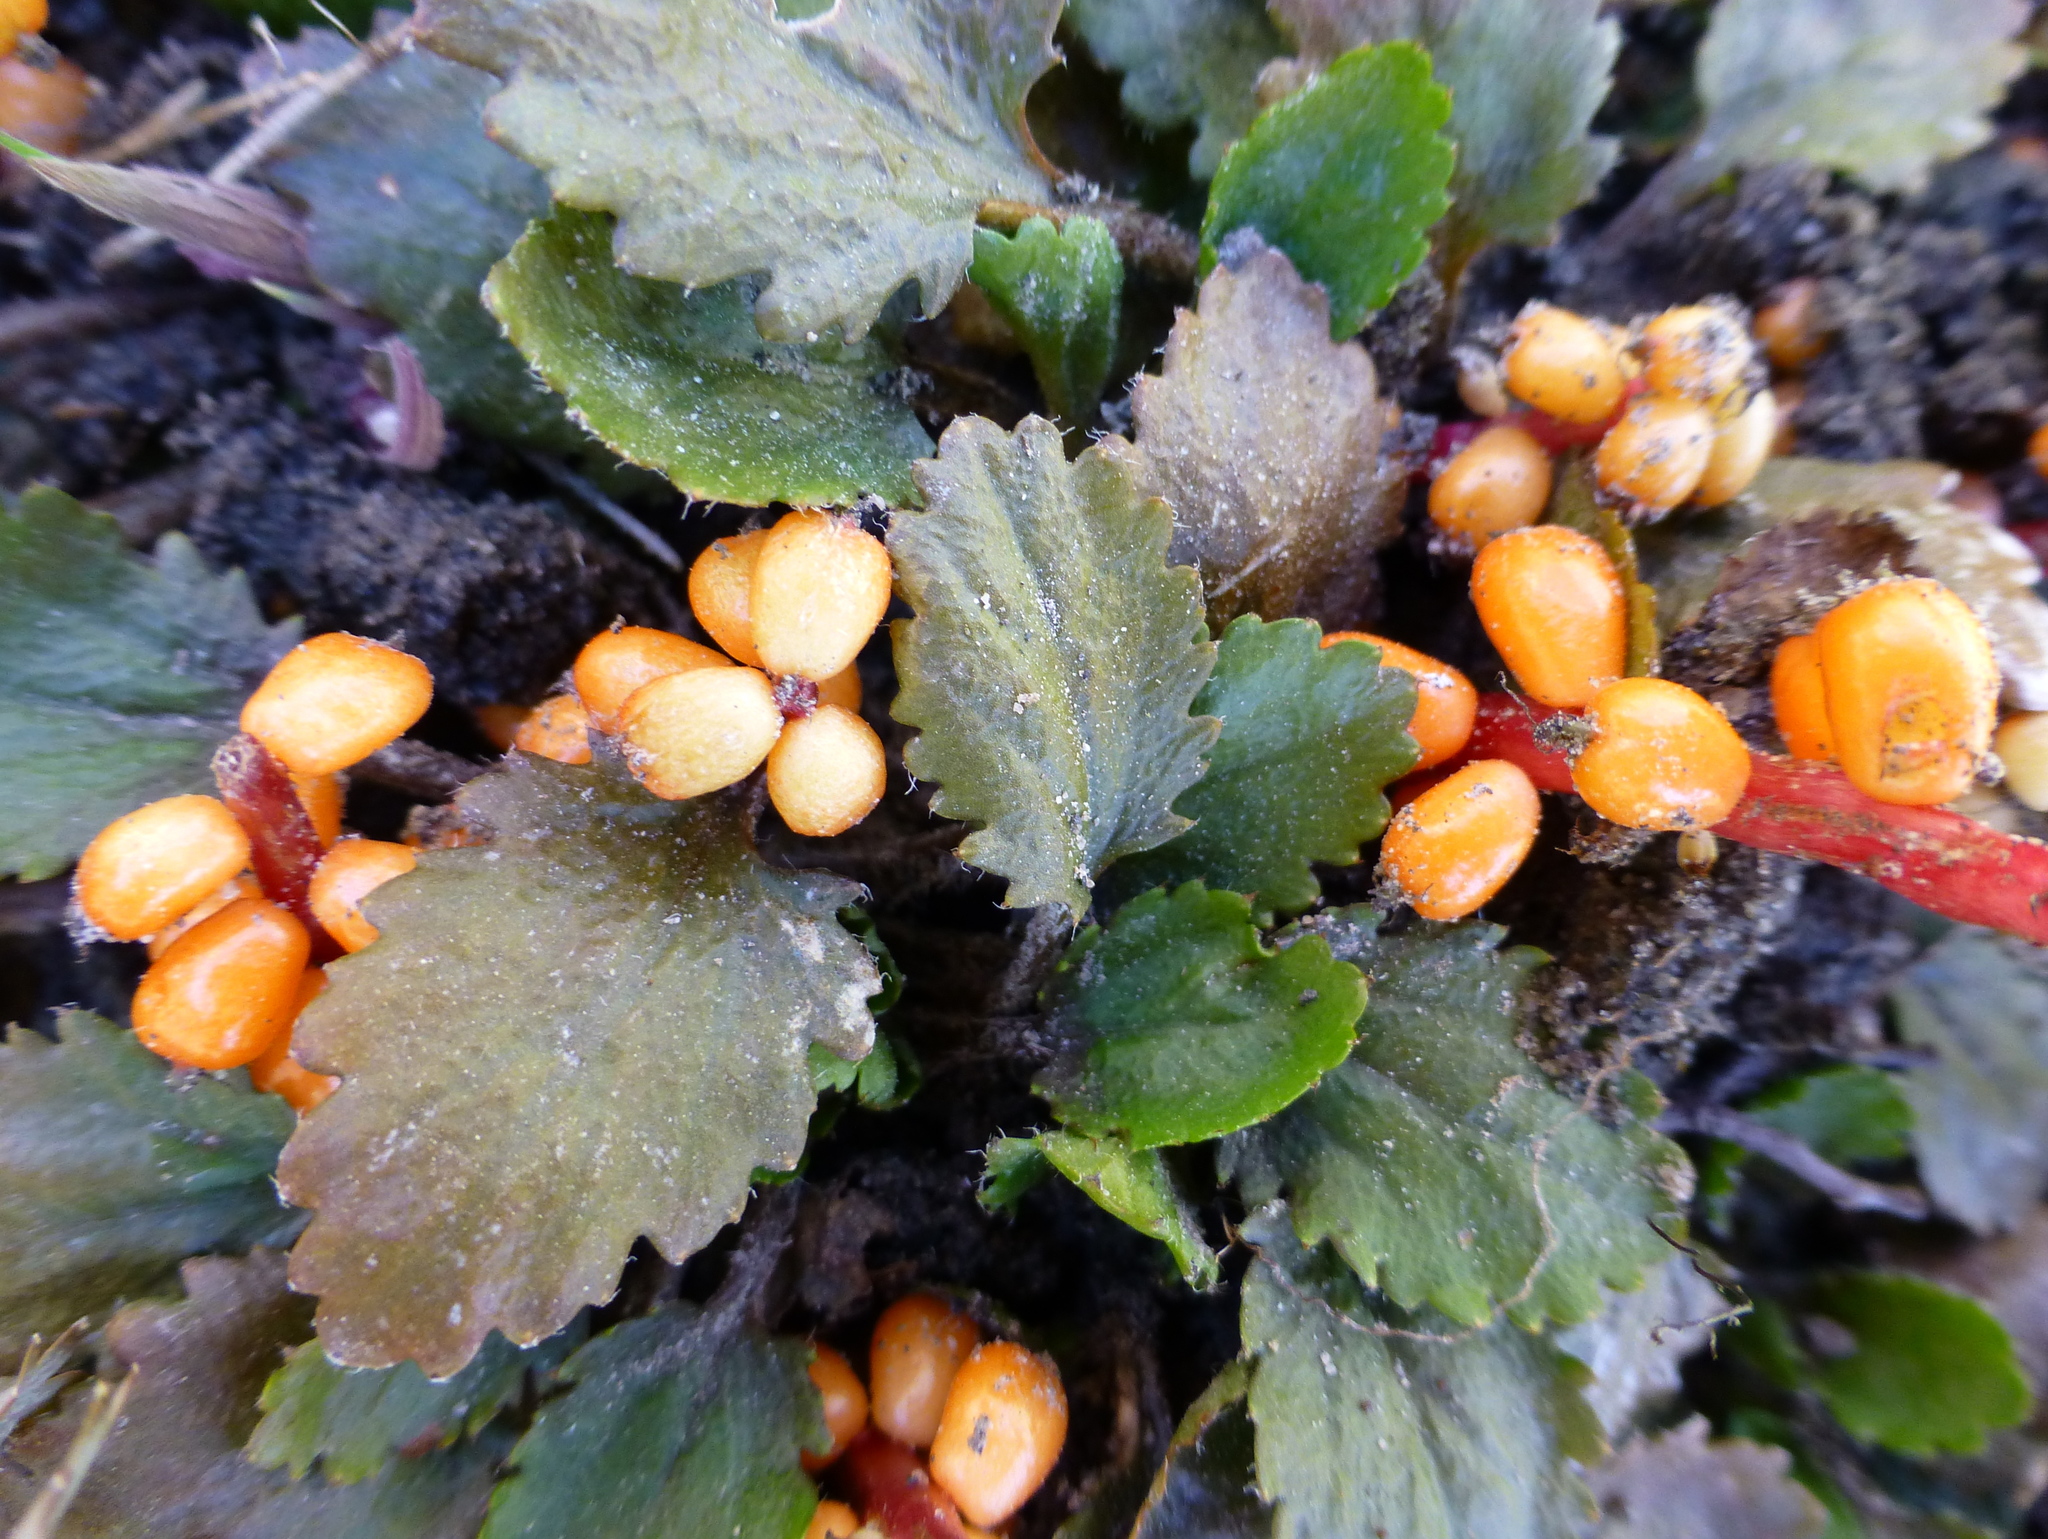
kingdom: Plantae
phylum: Tracheophyta
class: Magnoliopsida
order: Gunnerales
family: Gunneraceae
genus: Gunnera
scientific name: Gunnera dentata
